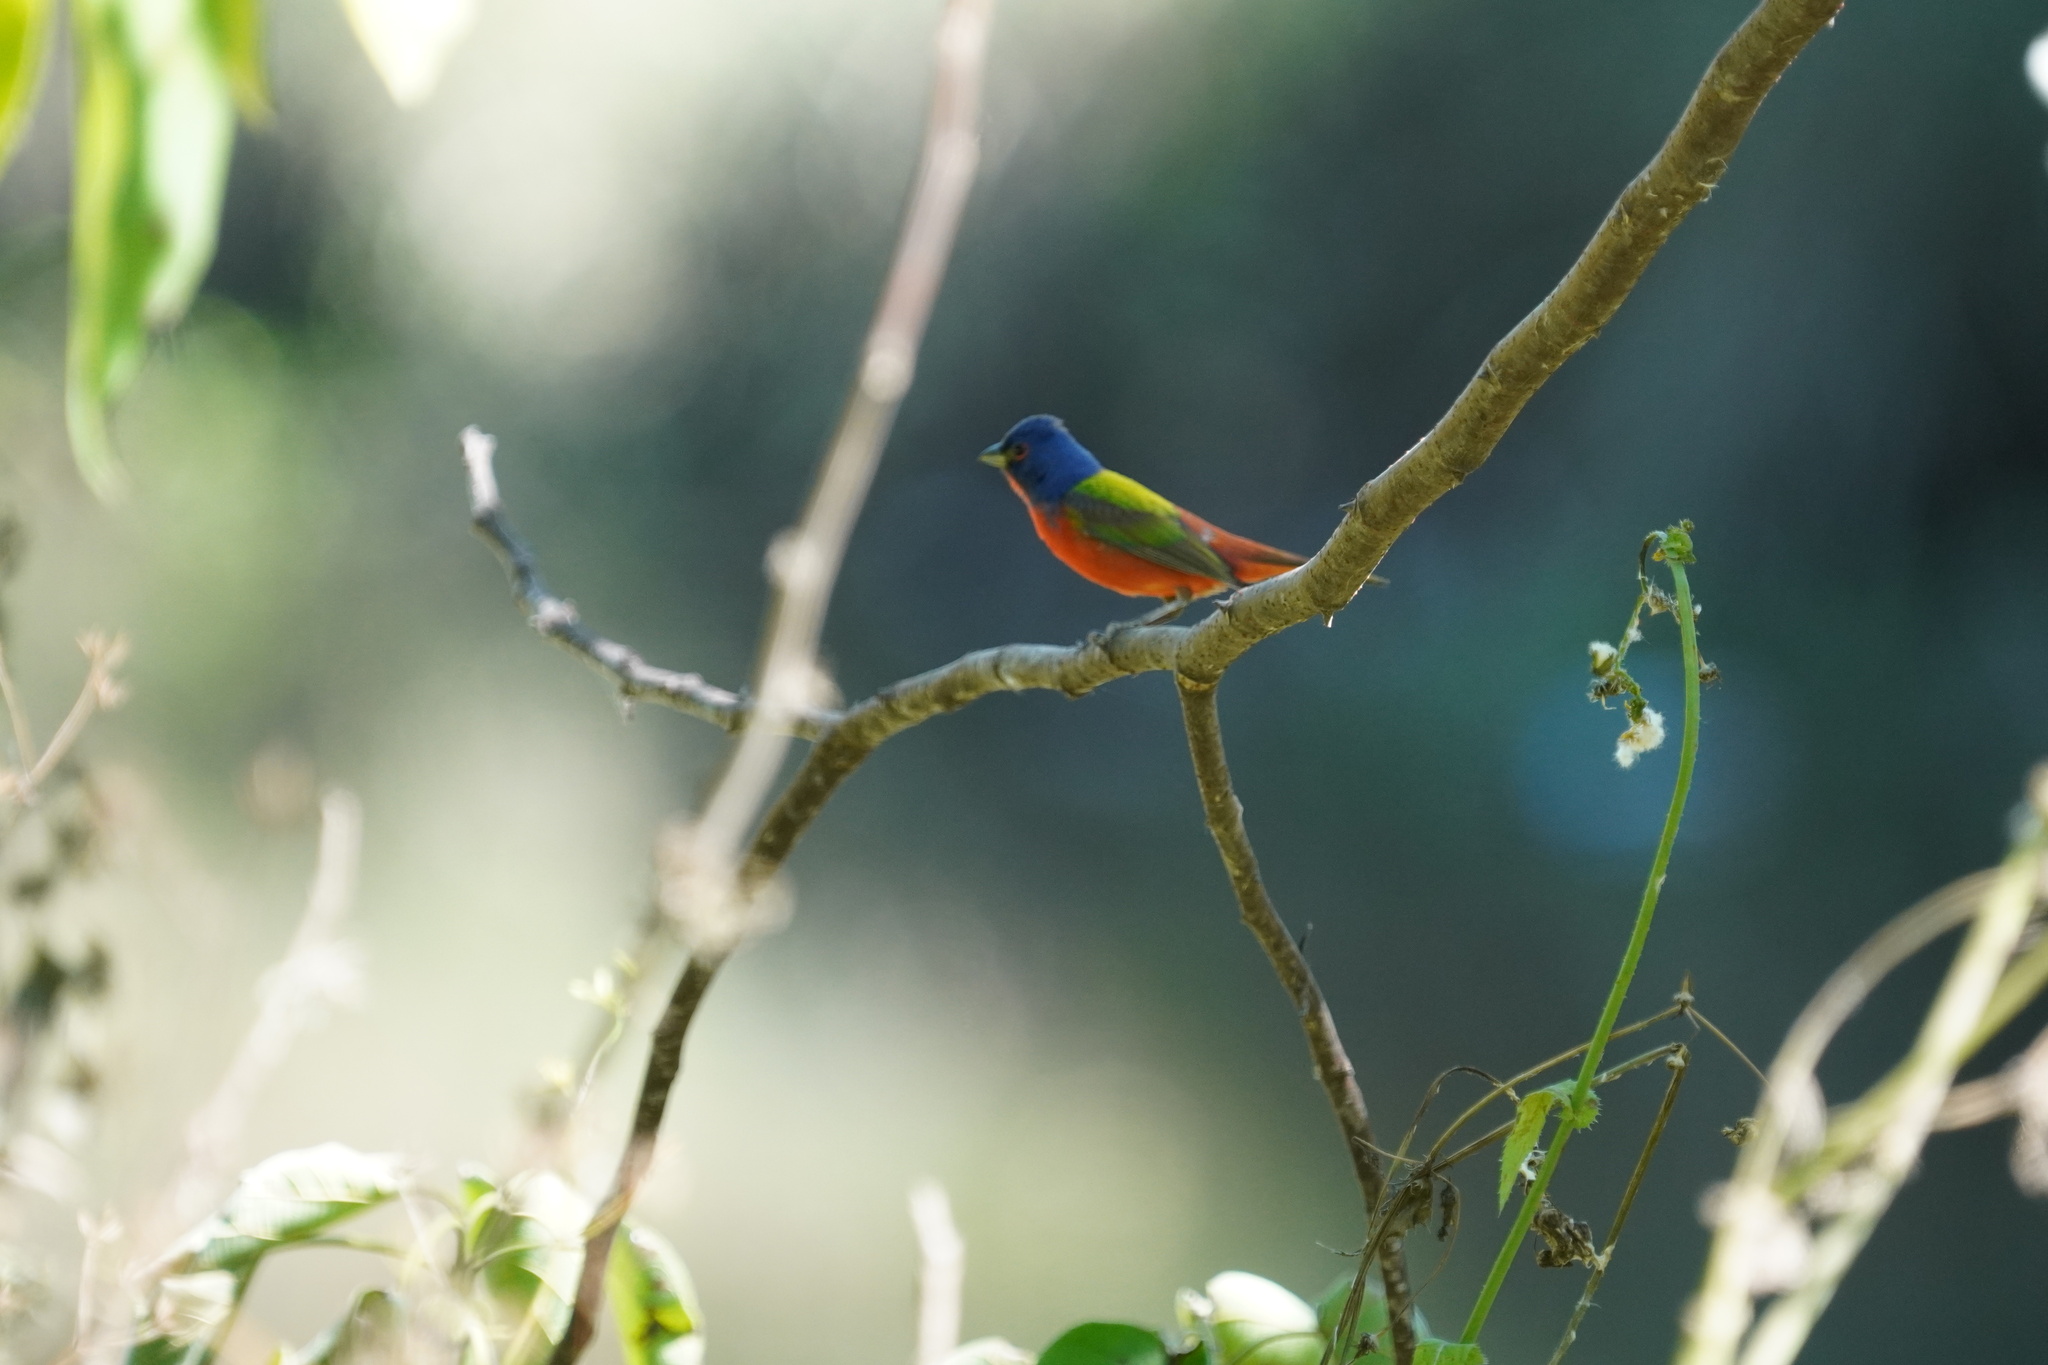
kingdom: Animalia
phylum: Chordata
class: Aves
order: Passeriformes
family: Cardinalidae
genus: Passerina
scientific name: Passerina ciris
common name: Painted bunting
